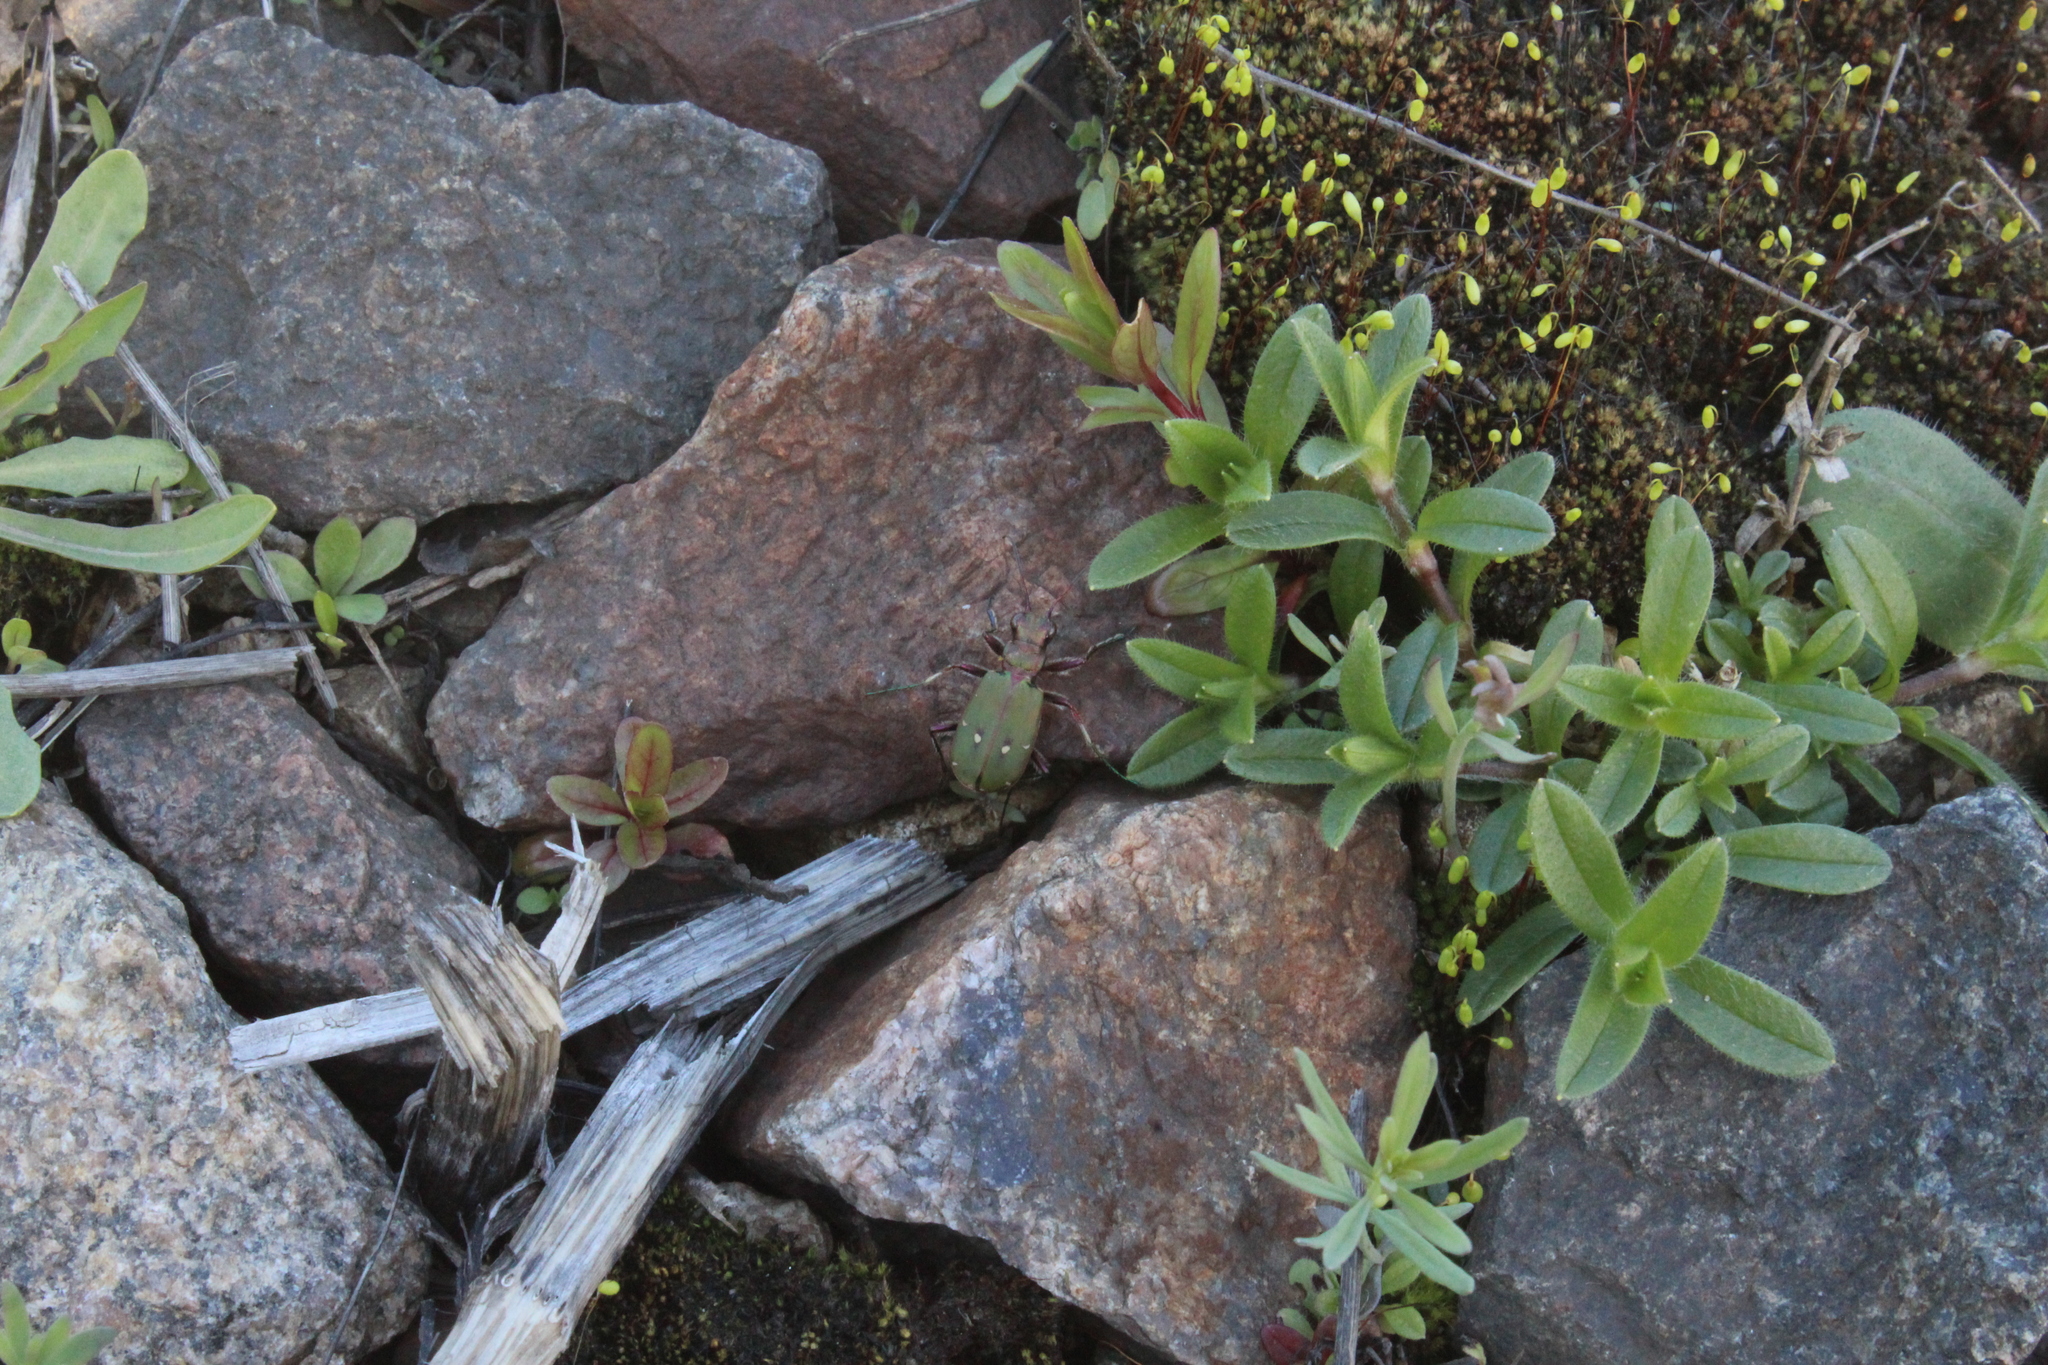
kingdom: Animalia
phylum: Arthropoda
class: Insecta
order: Coleoptera
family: Carabidae
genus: Cicindela
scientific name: Cicindela campestris
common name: Common tiger beetle
